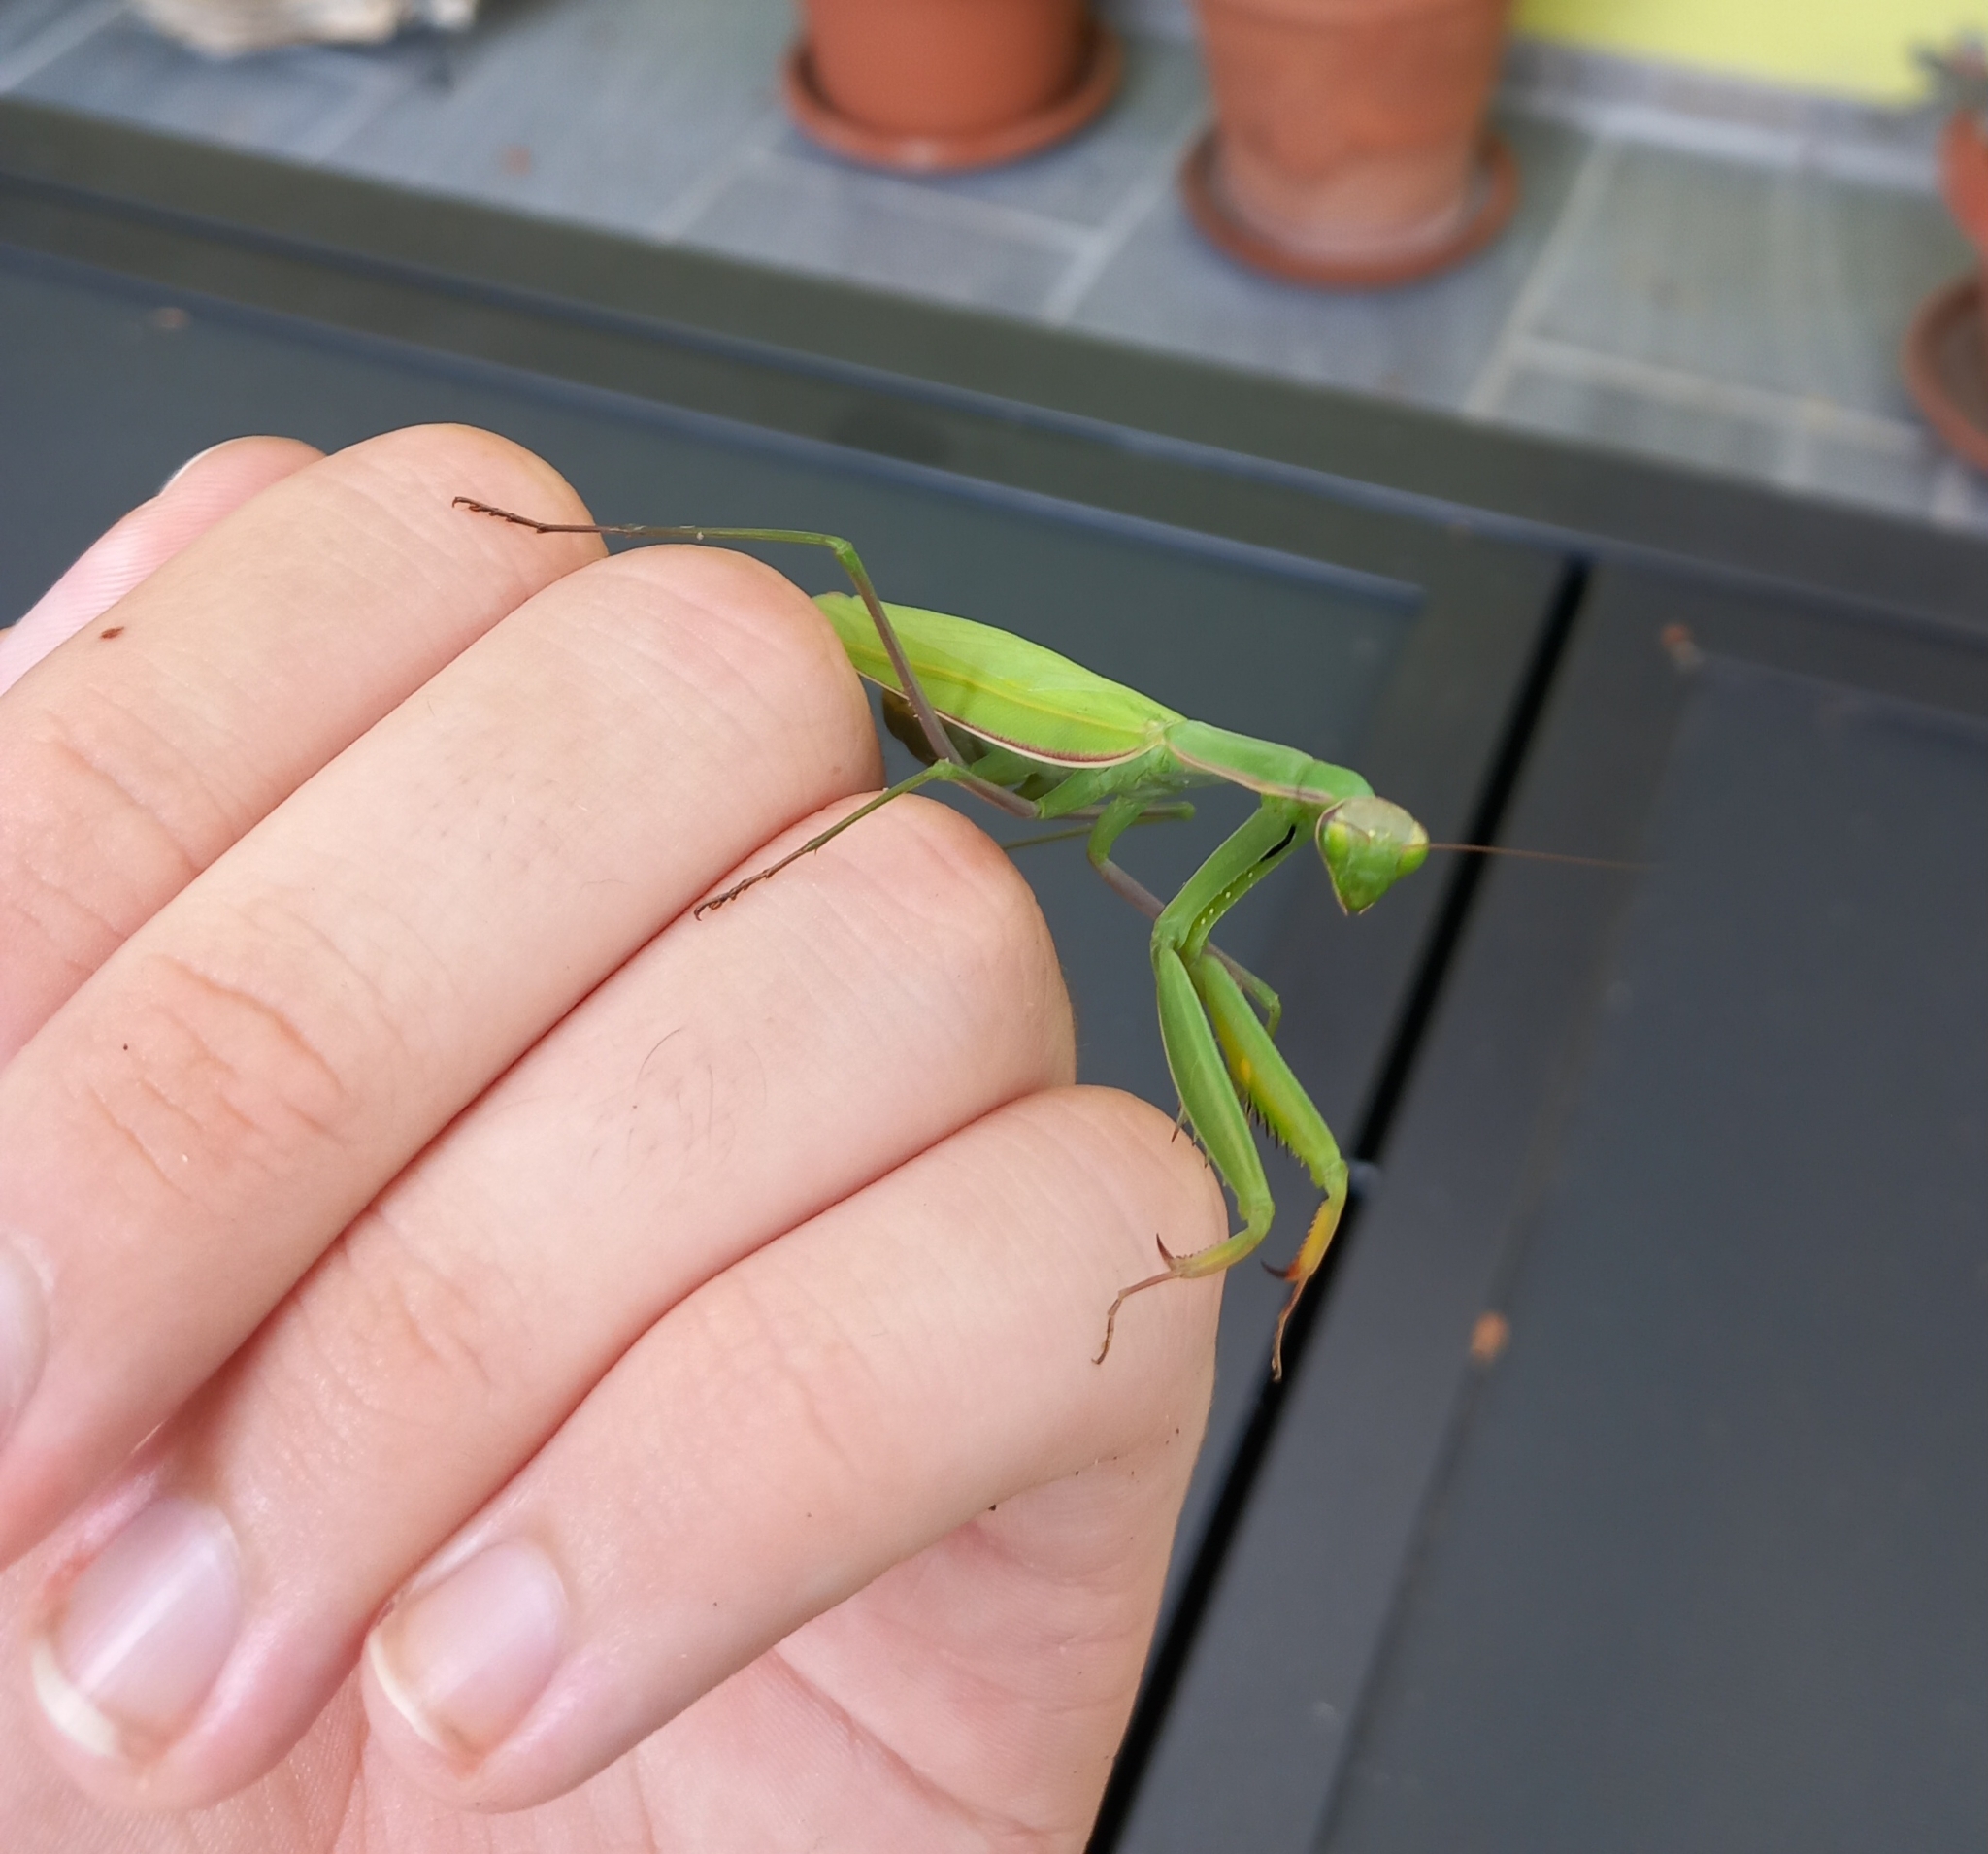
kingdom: Animalia
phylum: Arthropoda
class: Insecta
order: Mantodea
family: Mantidae
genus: Mantis
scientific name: Mantis religiosa
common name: Praying mantis
